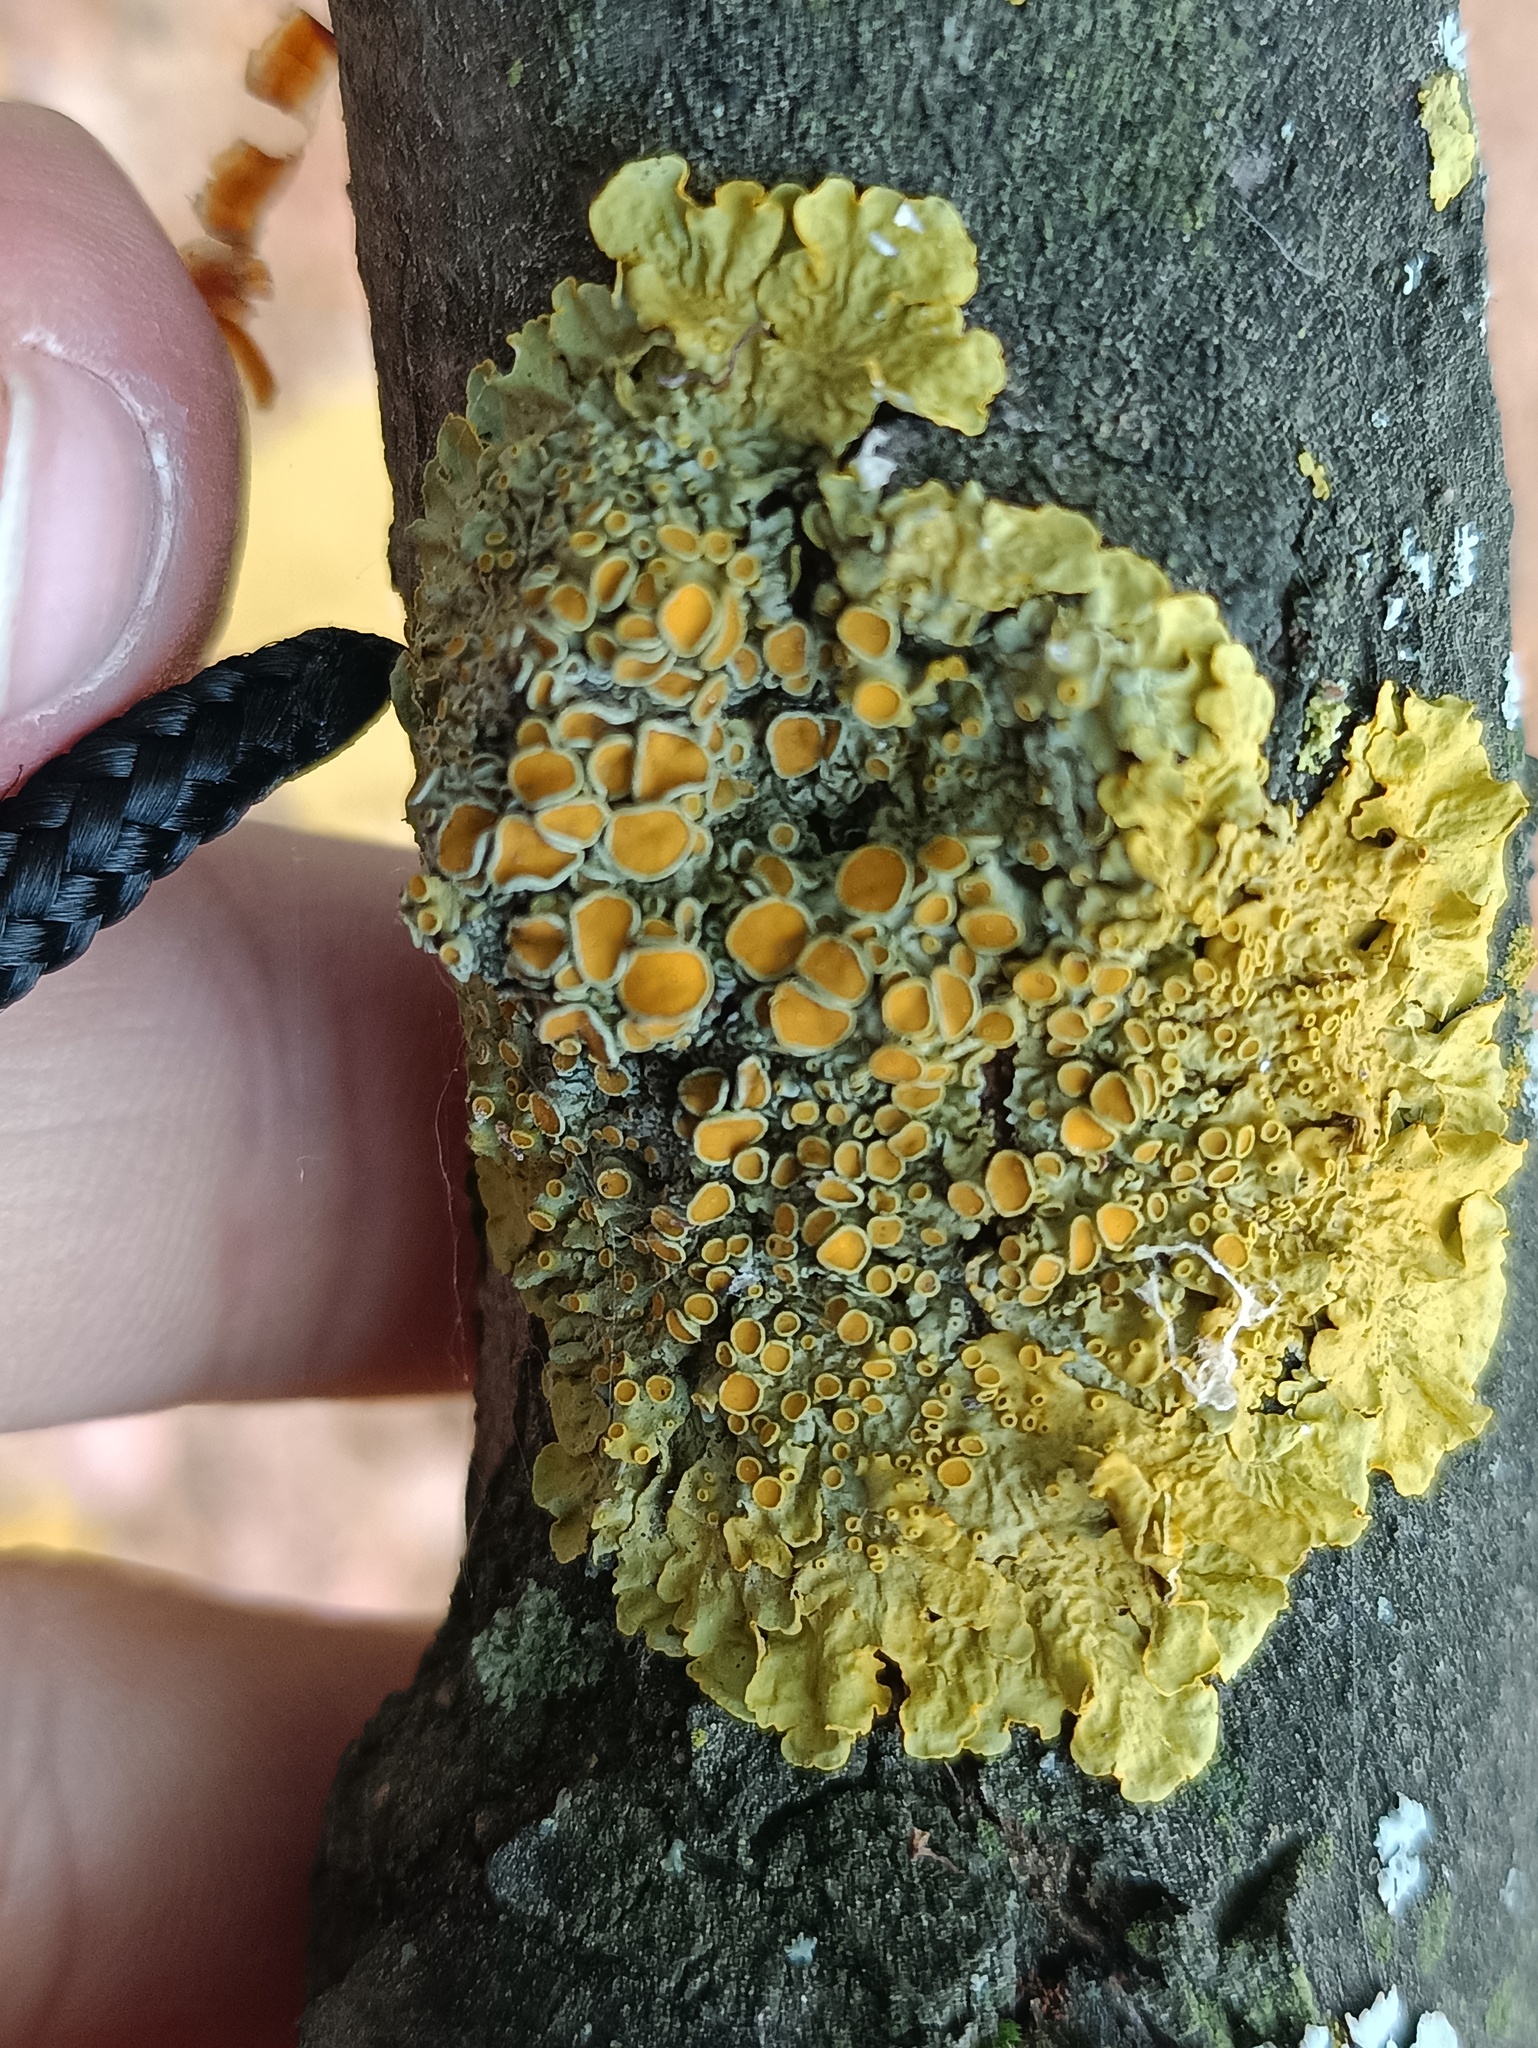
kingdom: Fungi
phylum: Ascomycota
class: Lecanoromycetes
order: Teloschistales
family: Teloschistaceae
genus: Xanthoria
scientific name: Xanthoria parietina
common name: Common orange lichen
